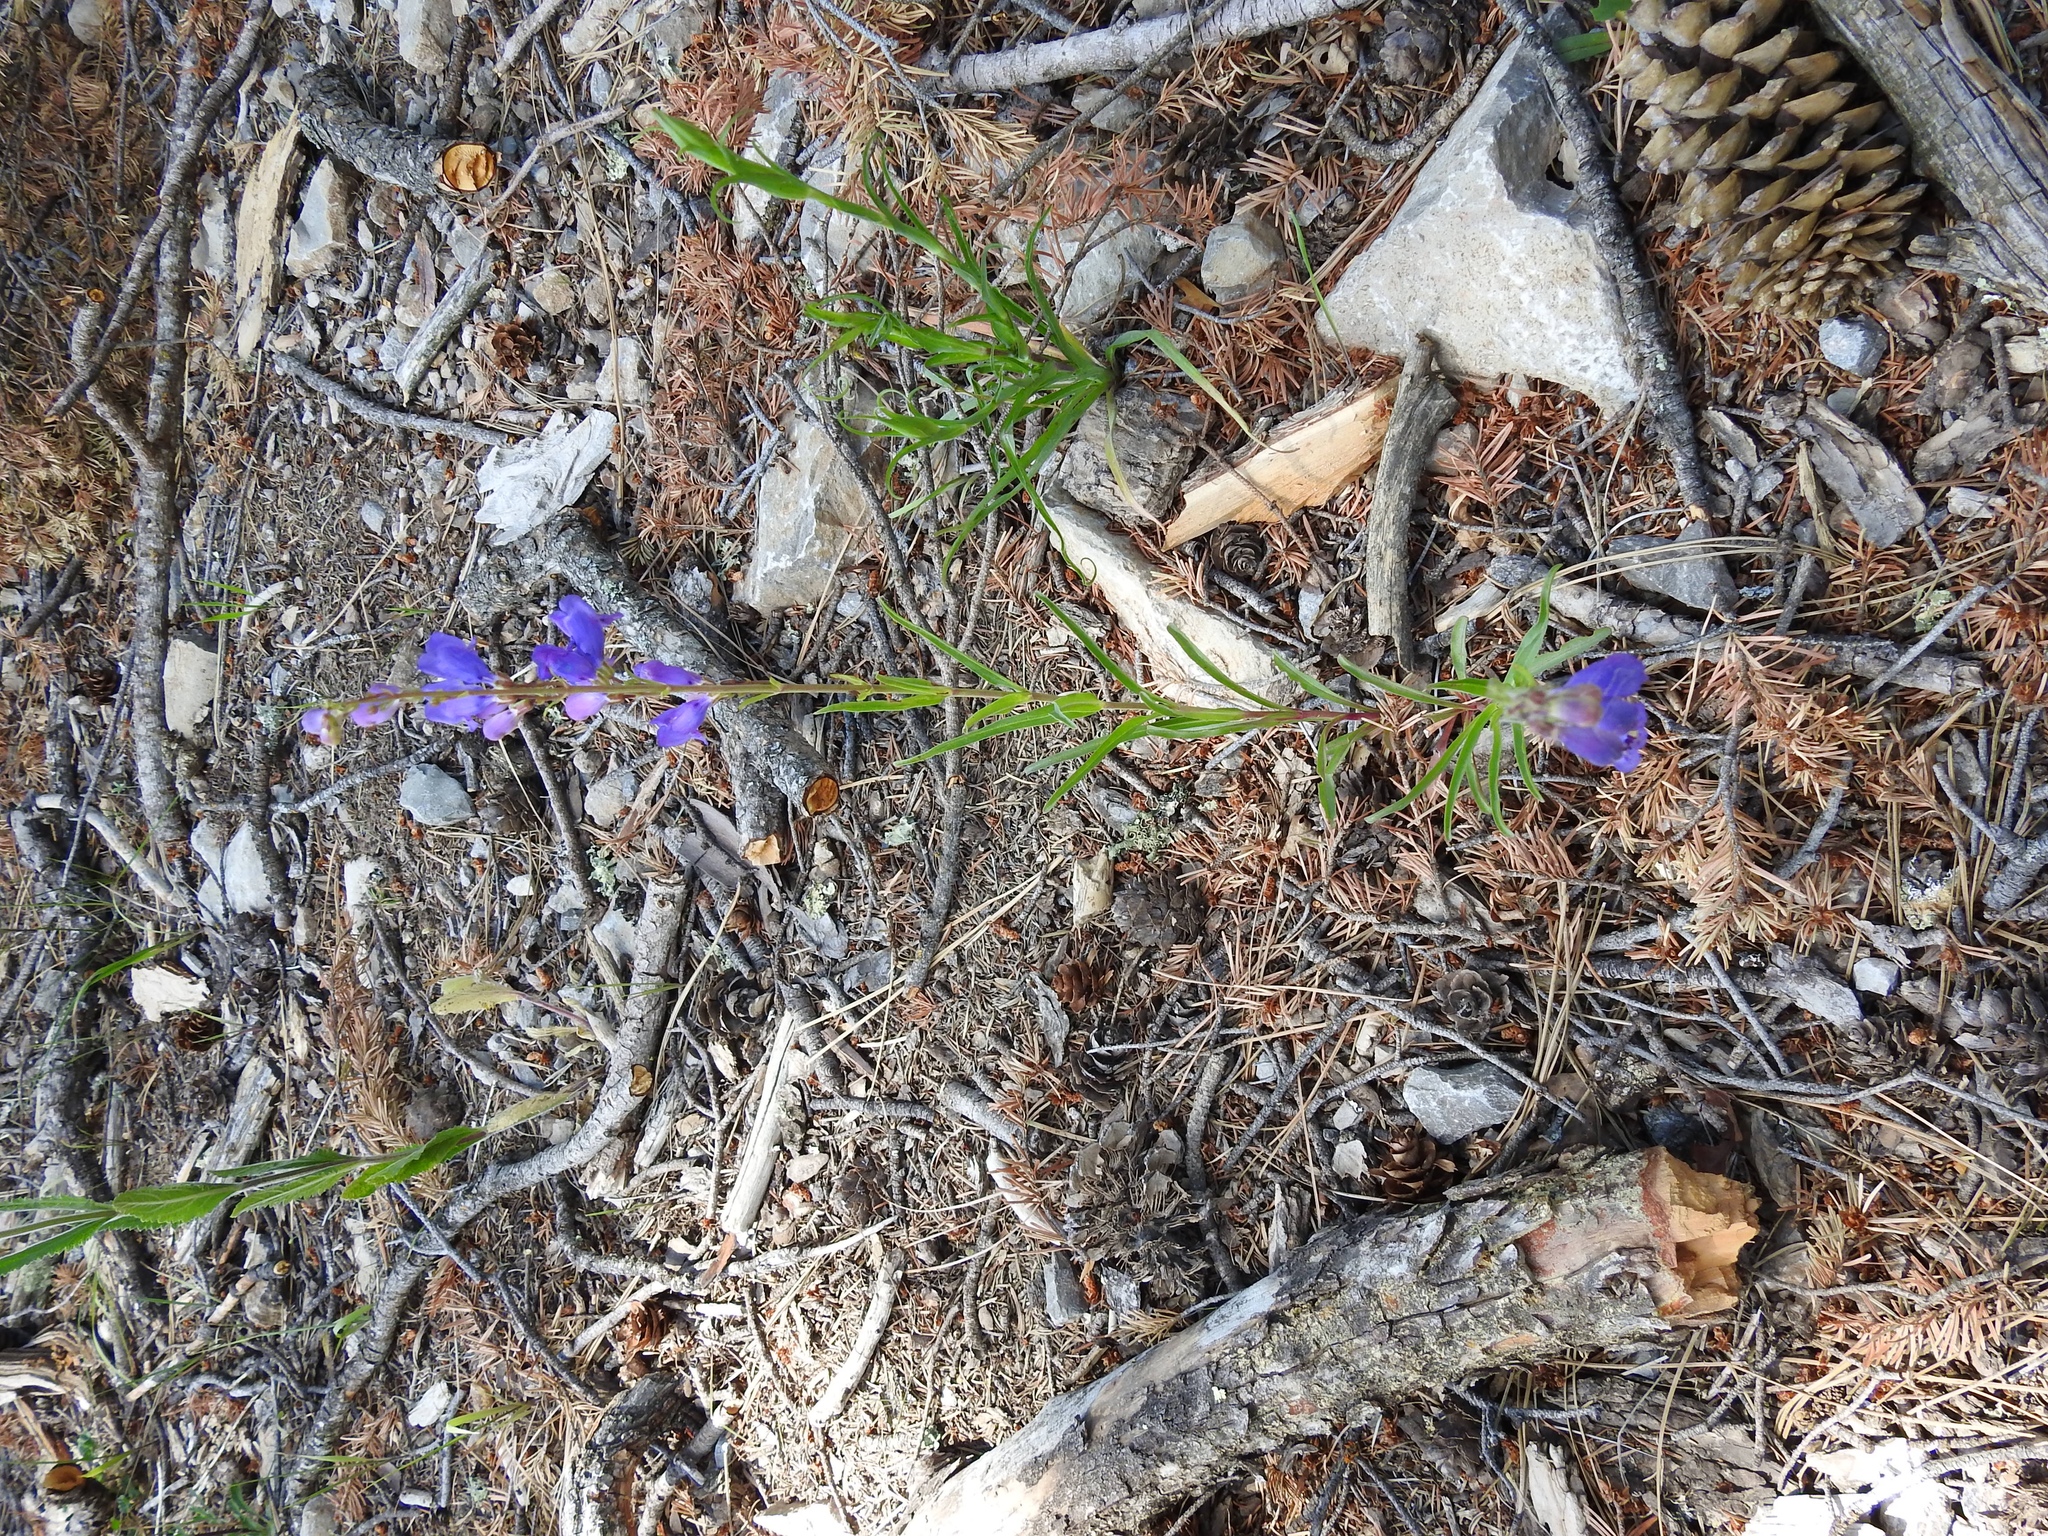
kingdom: Plantae
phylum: Tracheophyta
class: Magnoliopsida
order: Lamiales
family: Plantaginaceae
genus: Penstemon
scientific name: Penstemon neomexicanus
